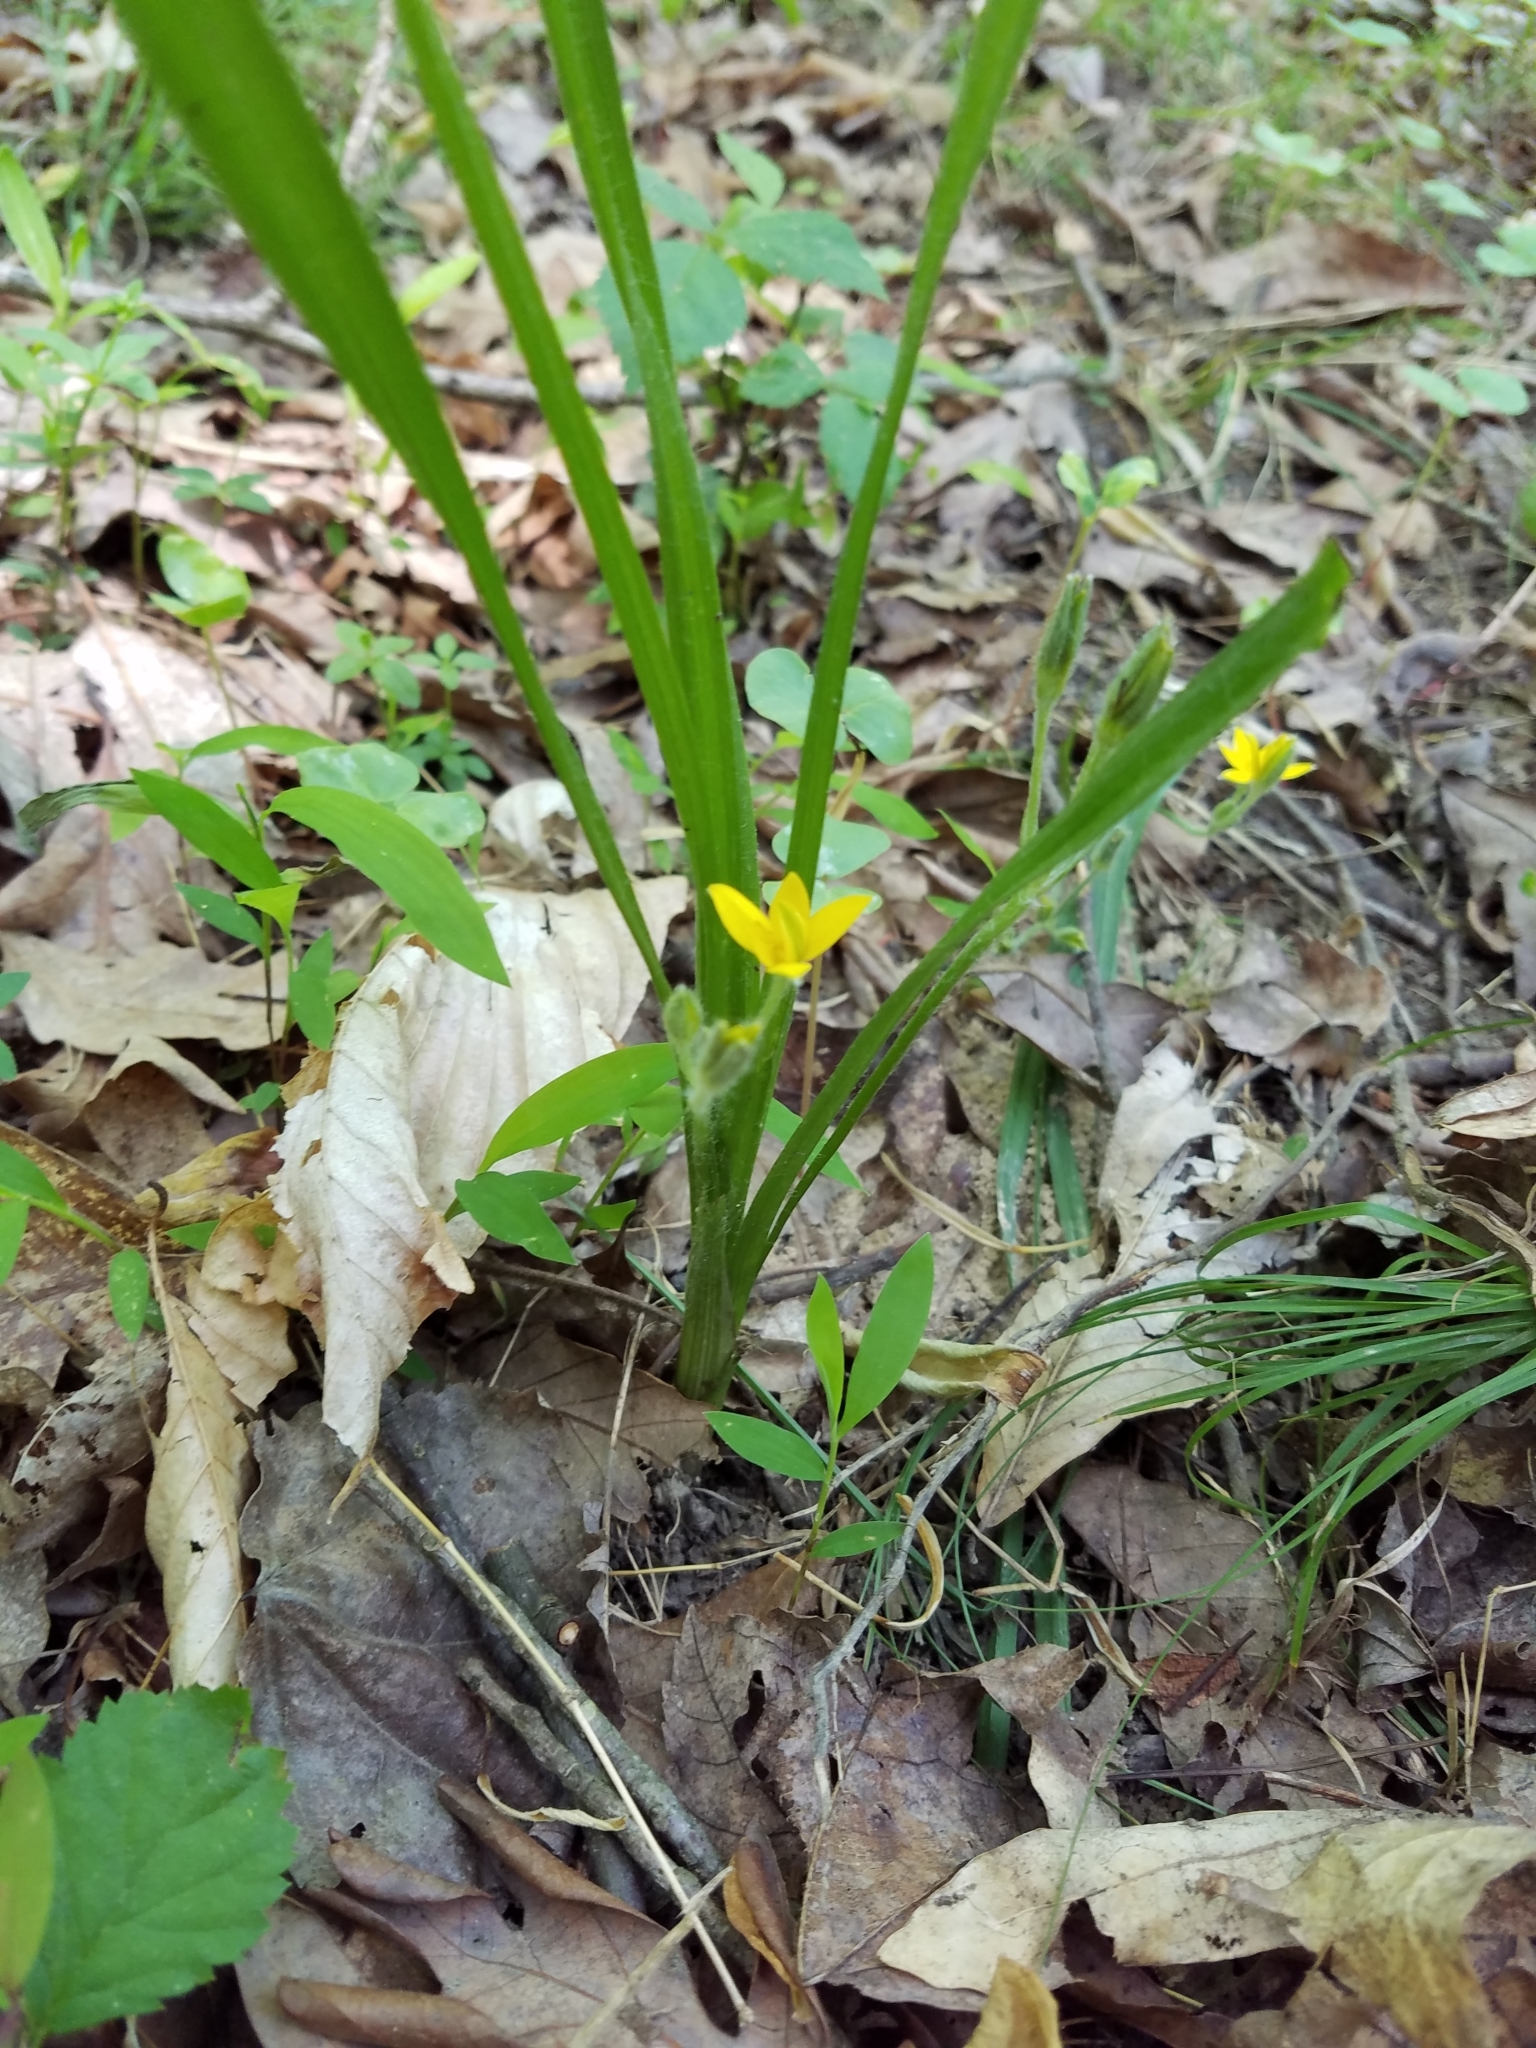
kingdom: Plantae
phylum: Tracheophyta
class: Liliopsida
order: Asparagales
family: Hypoxidaceae
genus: Hypoxis
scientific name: Hypoxis hirsuta
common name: Common goldstar
